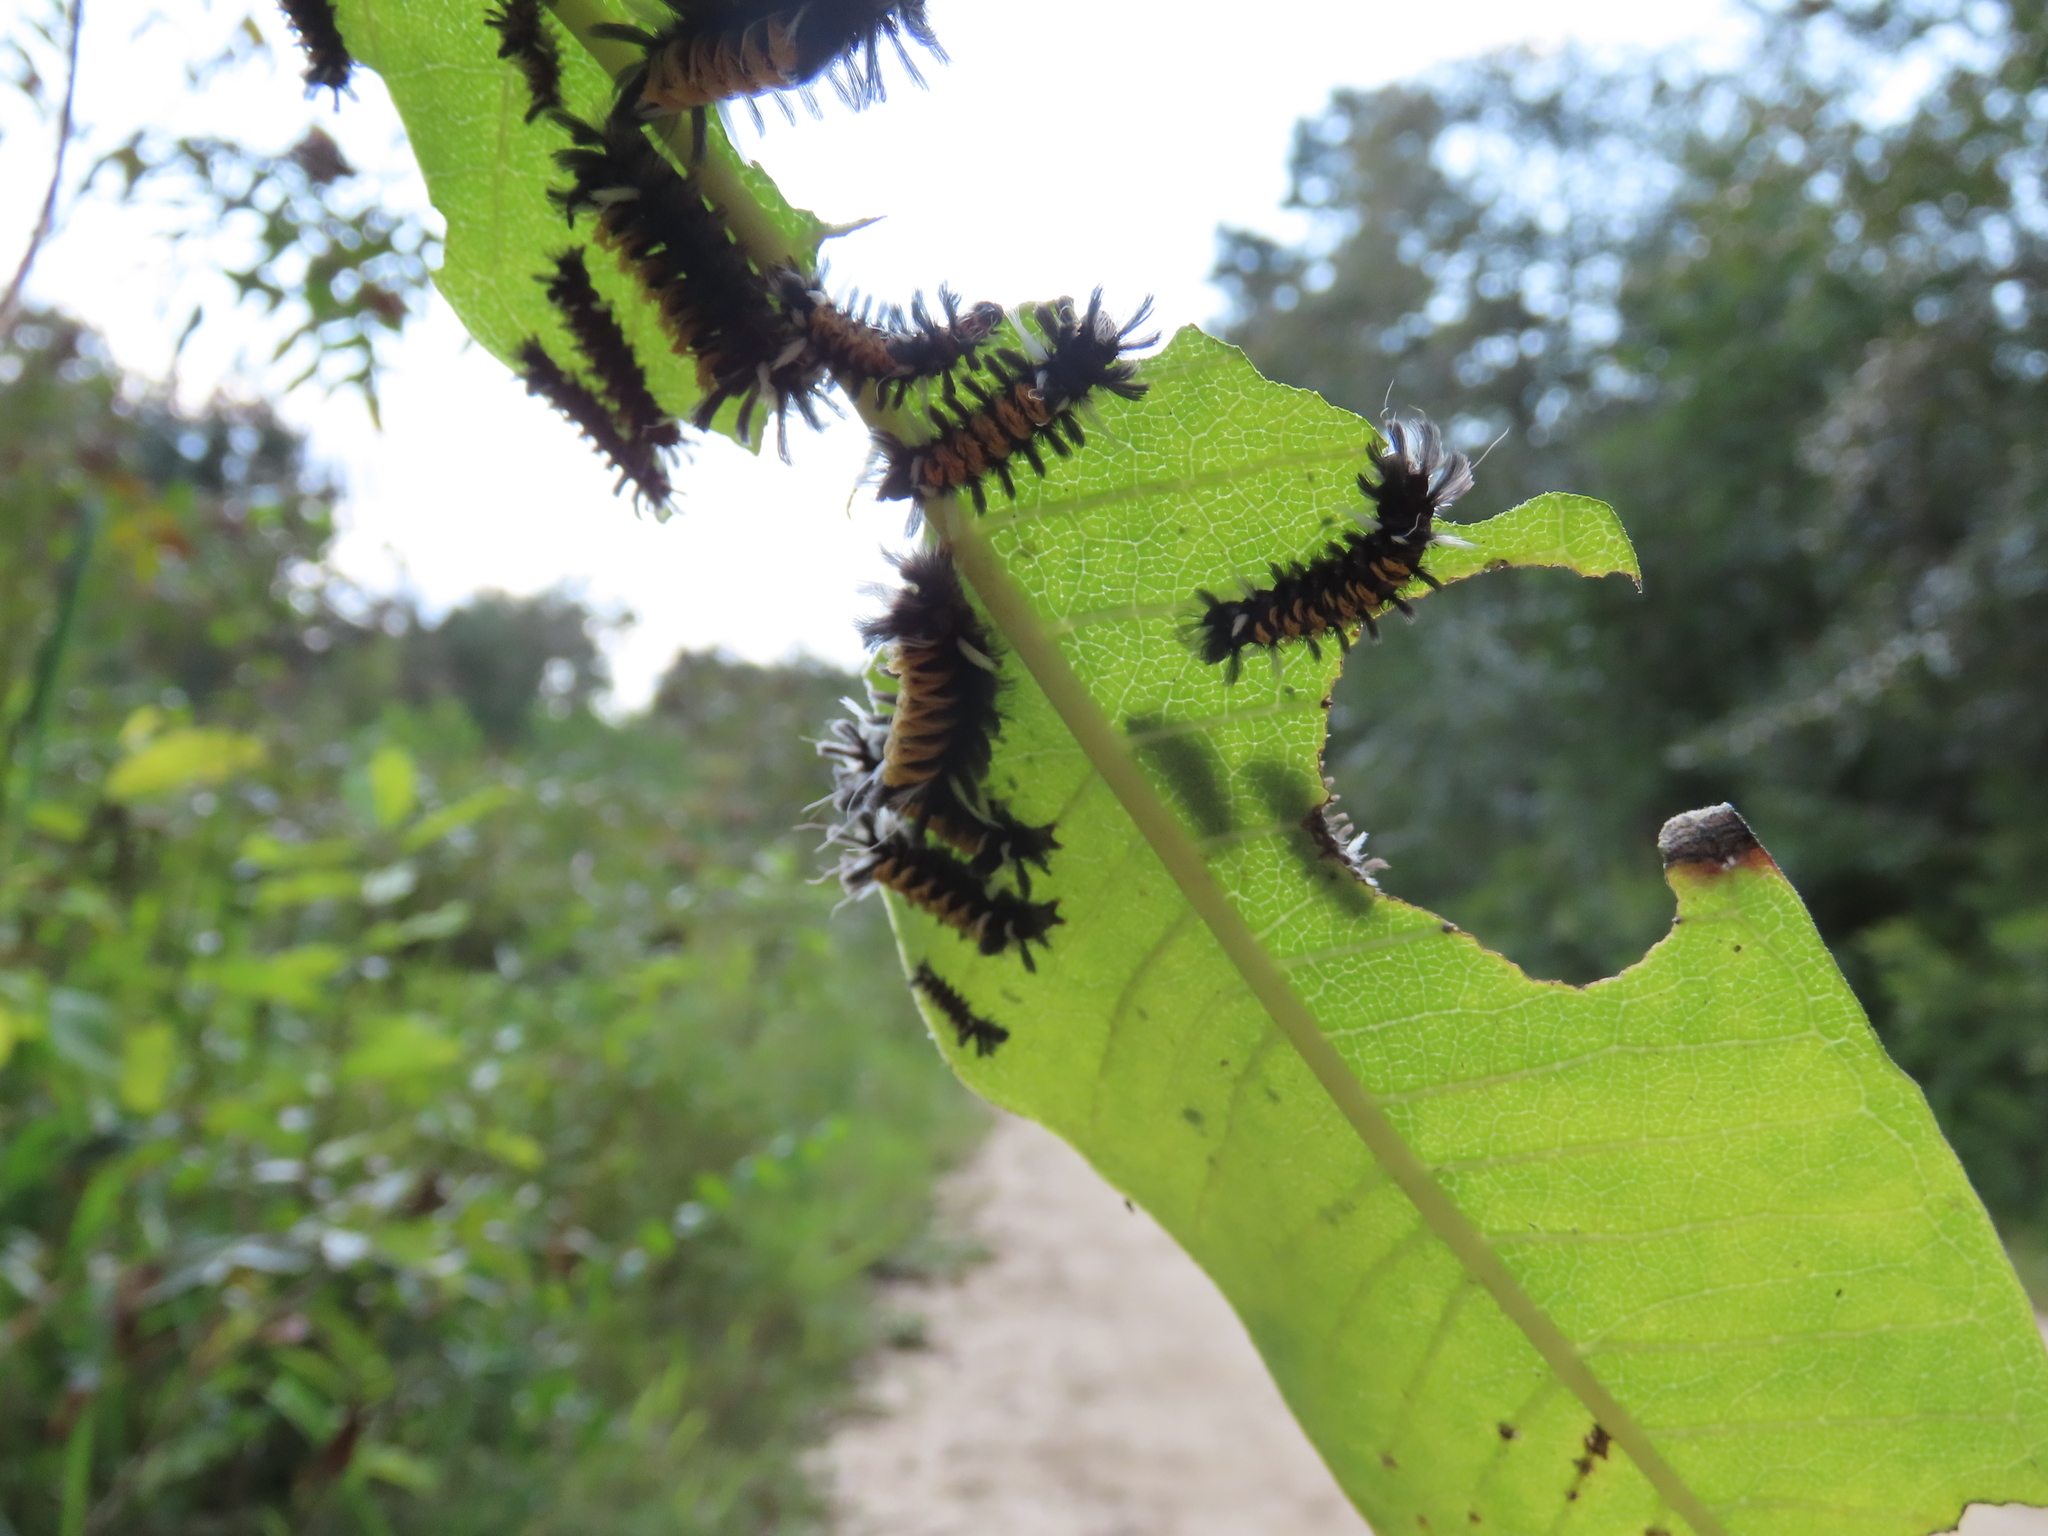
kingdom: Animalia
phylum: Arthropoda
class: Insecta
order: Lepidoptera
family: Erebidae
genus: Euchaetes
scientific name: Euchaetes egle
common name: Milkweed tussock moth
